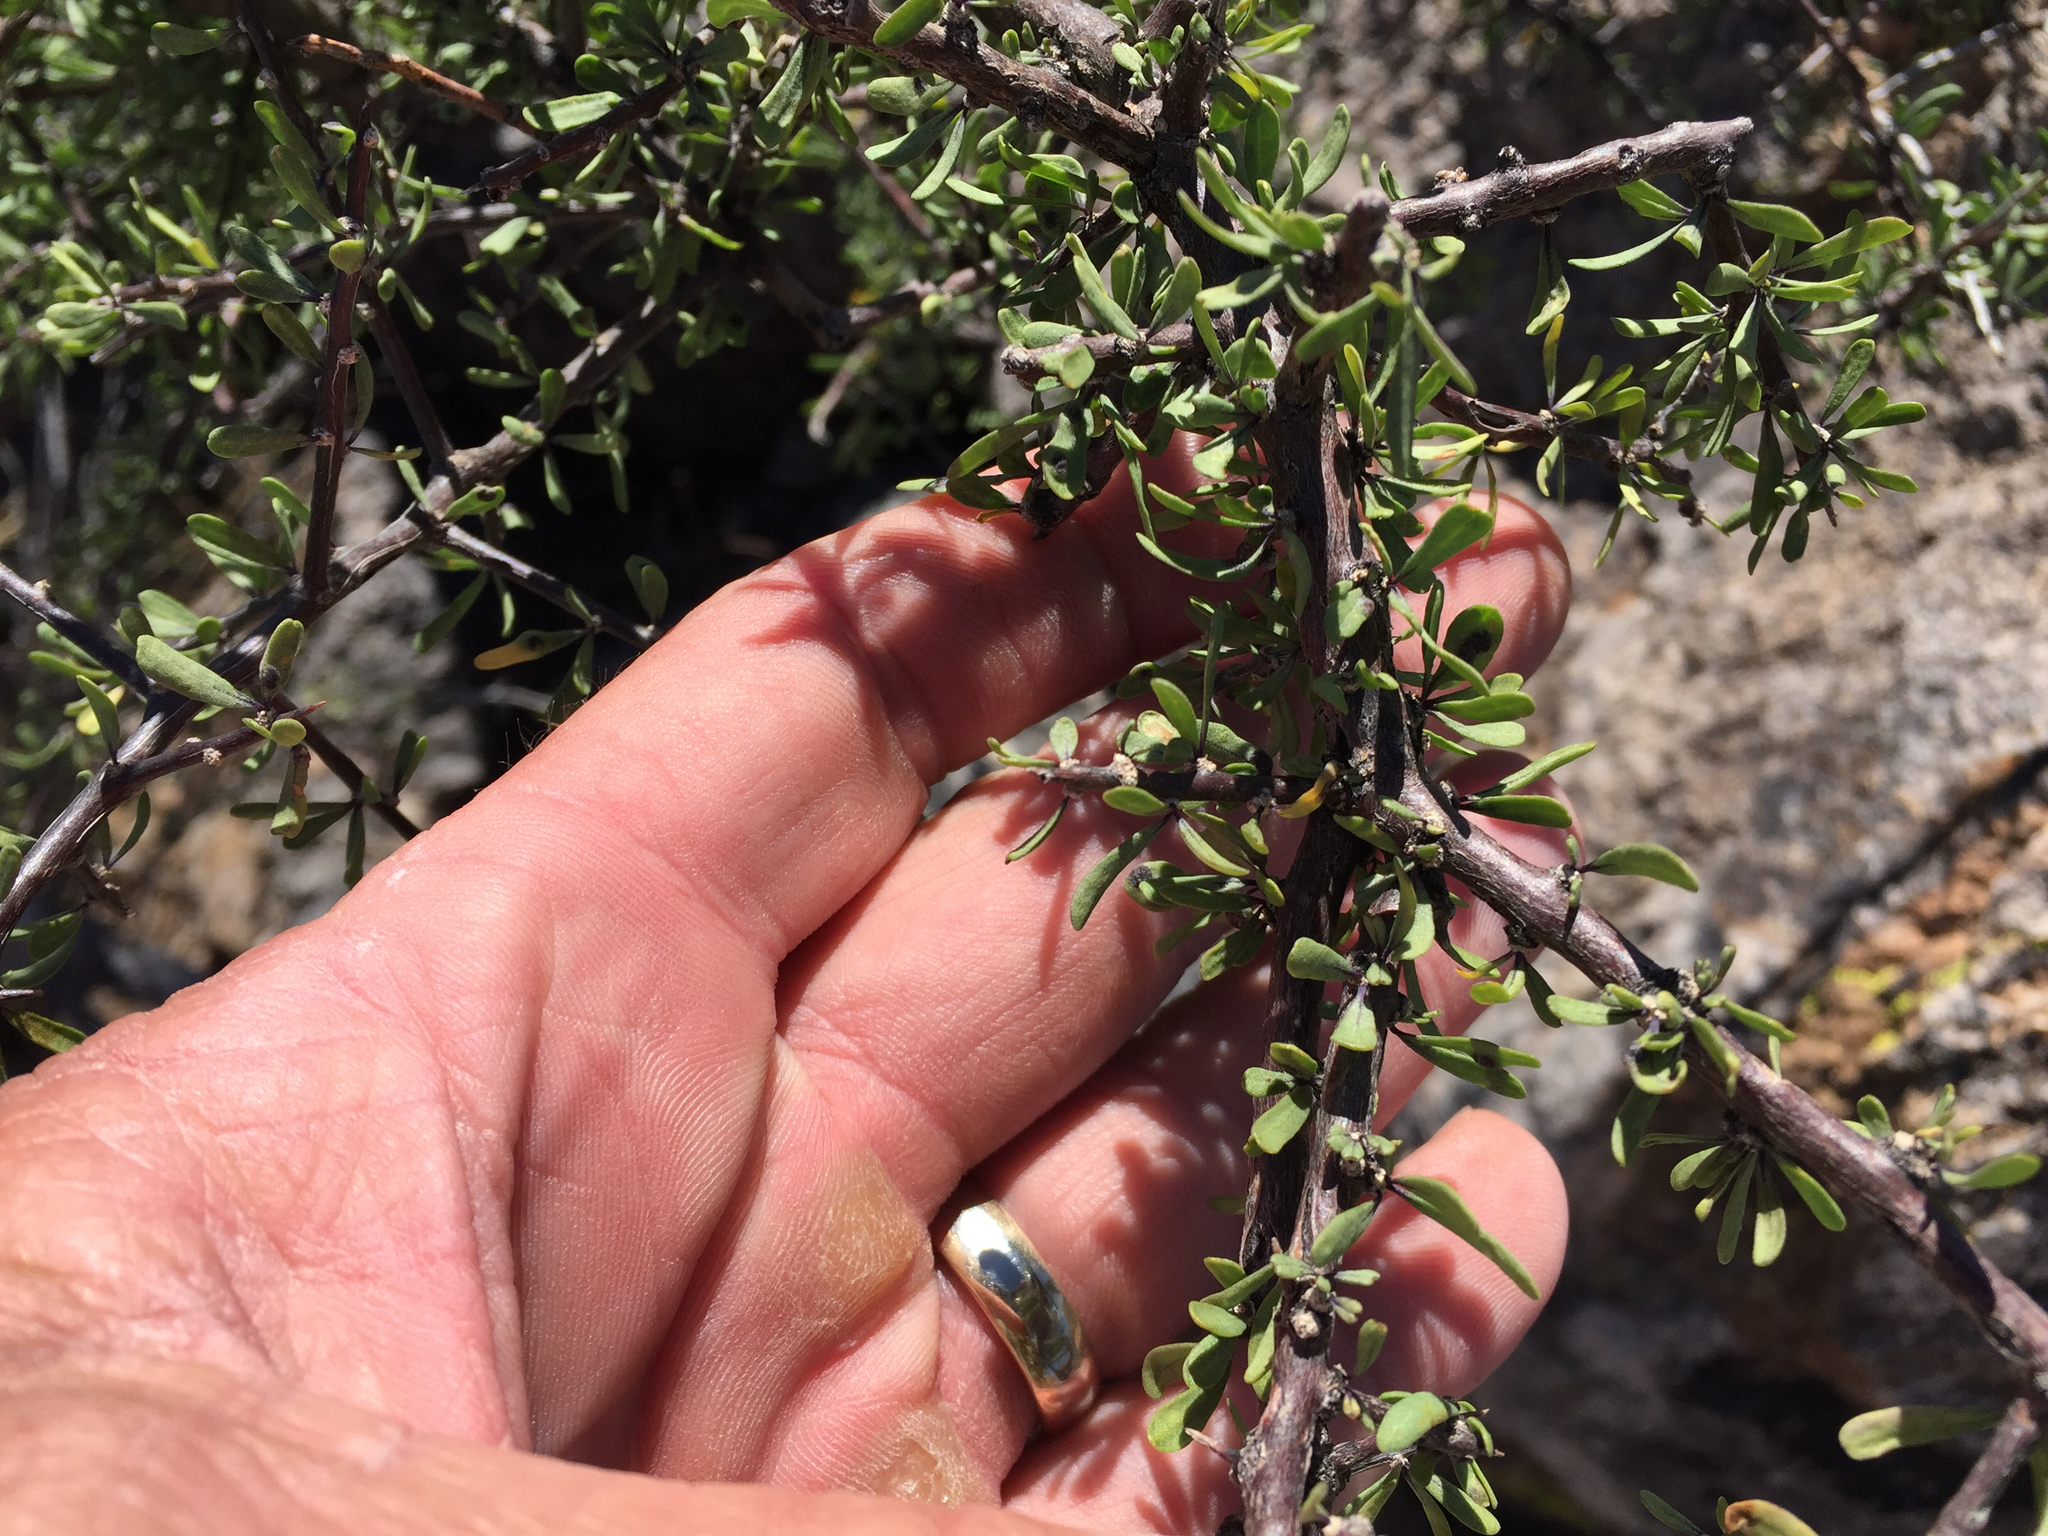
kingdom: Plantae
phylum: Tracheophyta
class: Magnoliopsida
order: Solanales
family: Solanaceae
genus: Lycium
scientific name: Lycium berlandieri
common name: Berlandier wolfberry
